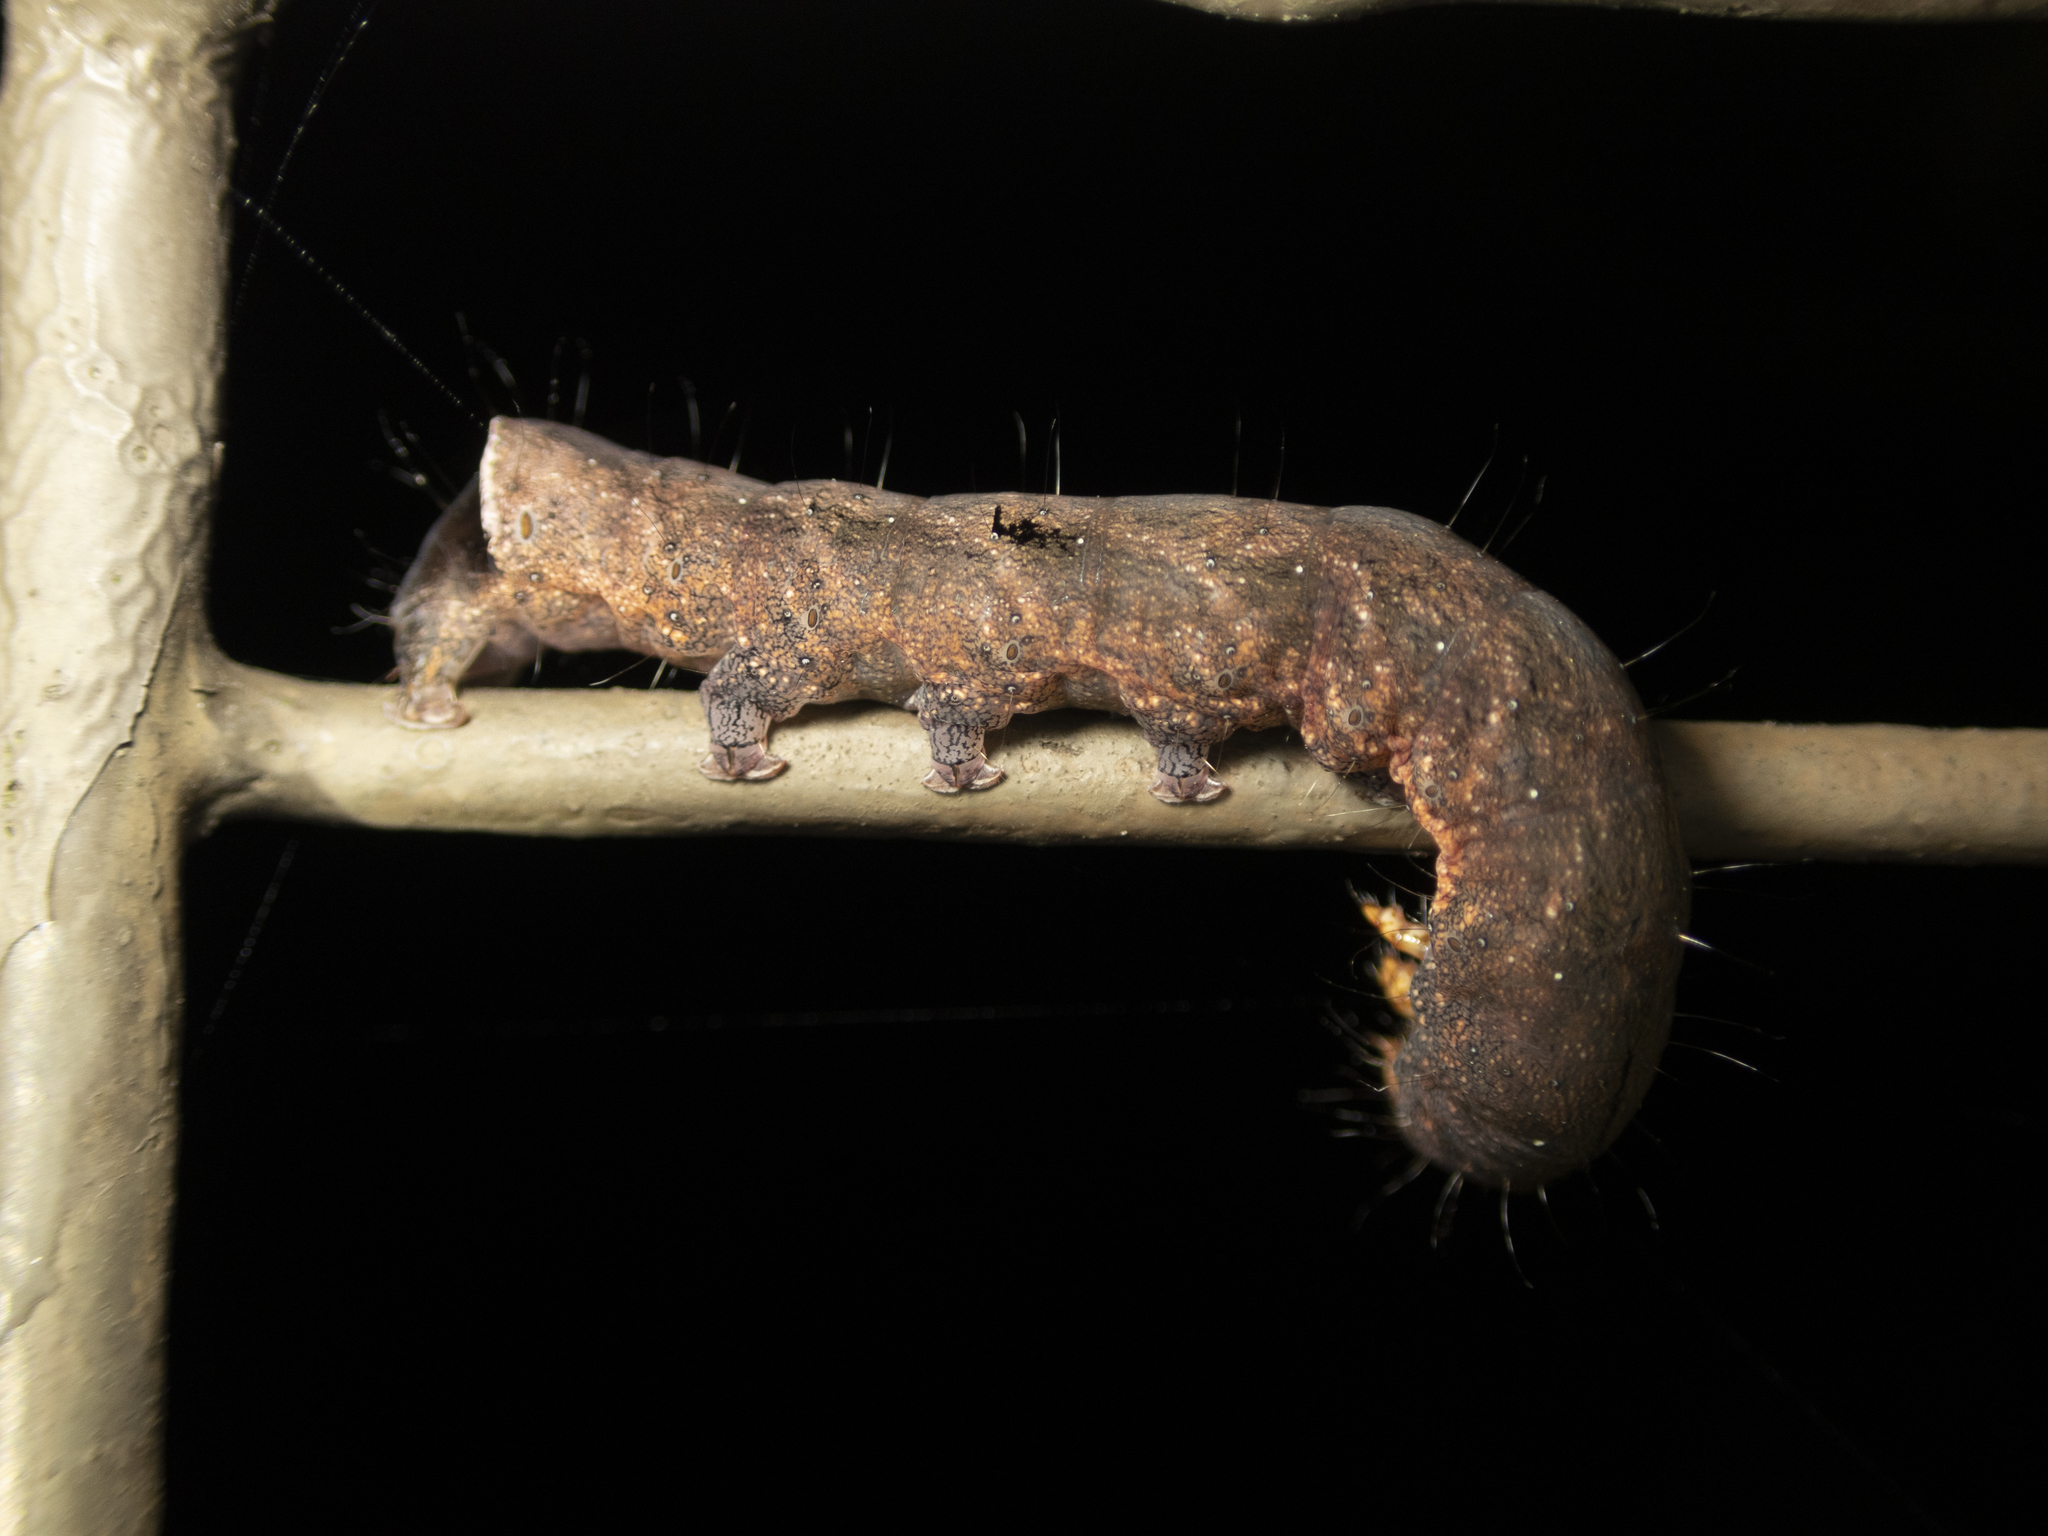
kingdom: Animalia
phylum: Arthropoda
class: Insecta
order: Lepidoptera
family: Noctuidae
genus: Tiracola
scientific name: Tiracola aureata
